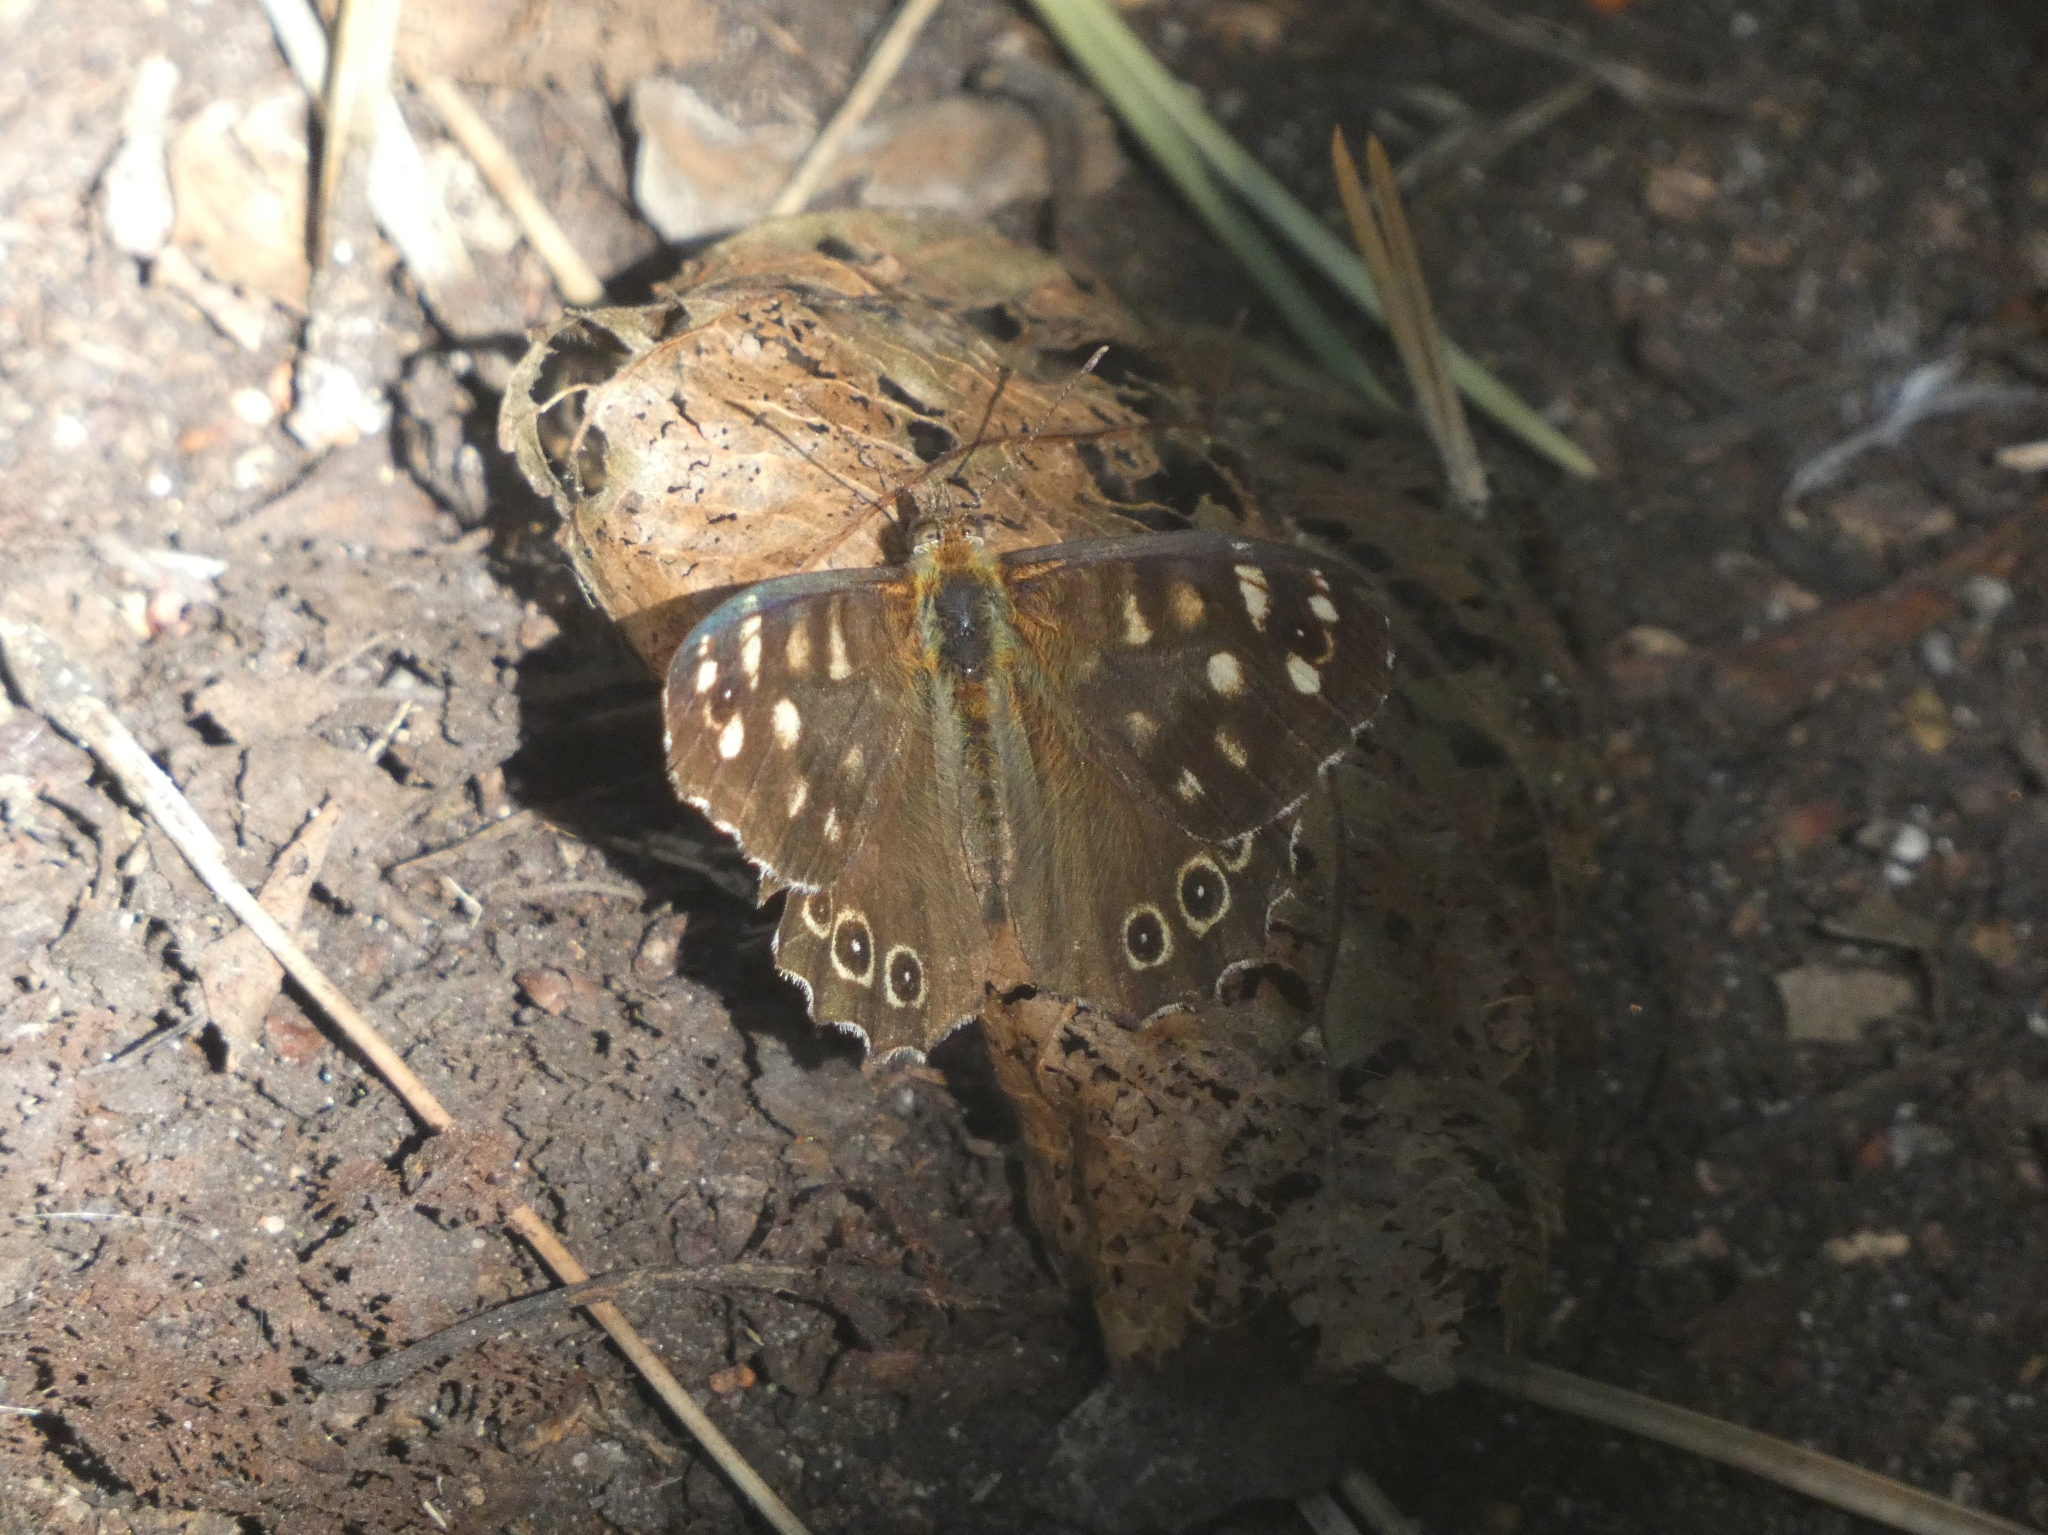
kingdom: Animalia
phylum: Arthropoda
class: Insecta
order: Lepidoptera
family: Nymphalidae
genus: Pararge
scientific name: Pararge aegeria
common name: Speckled wood
